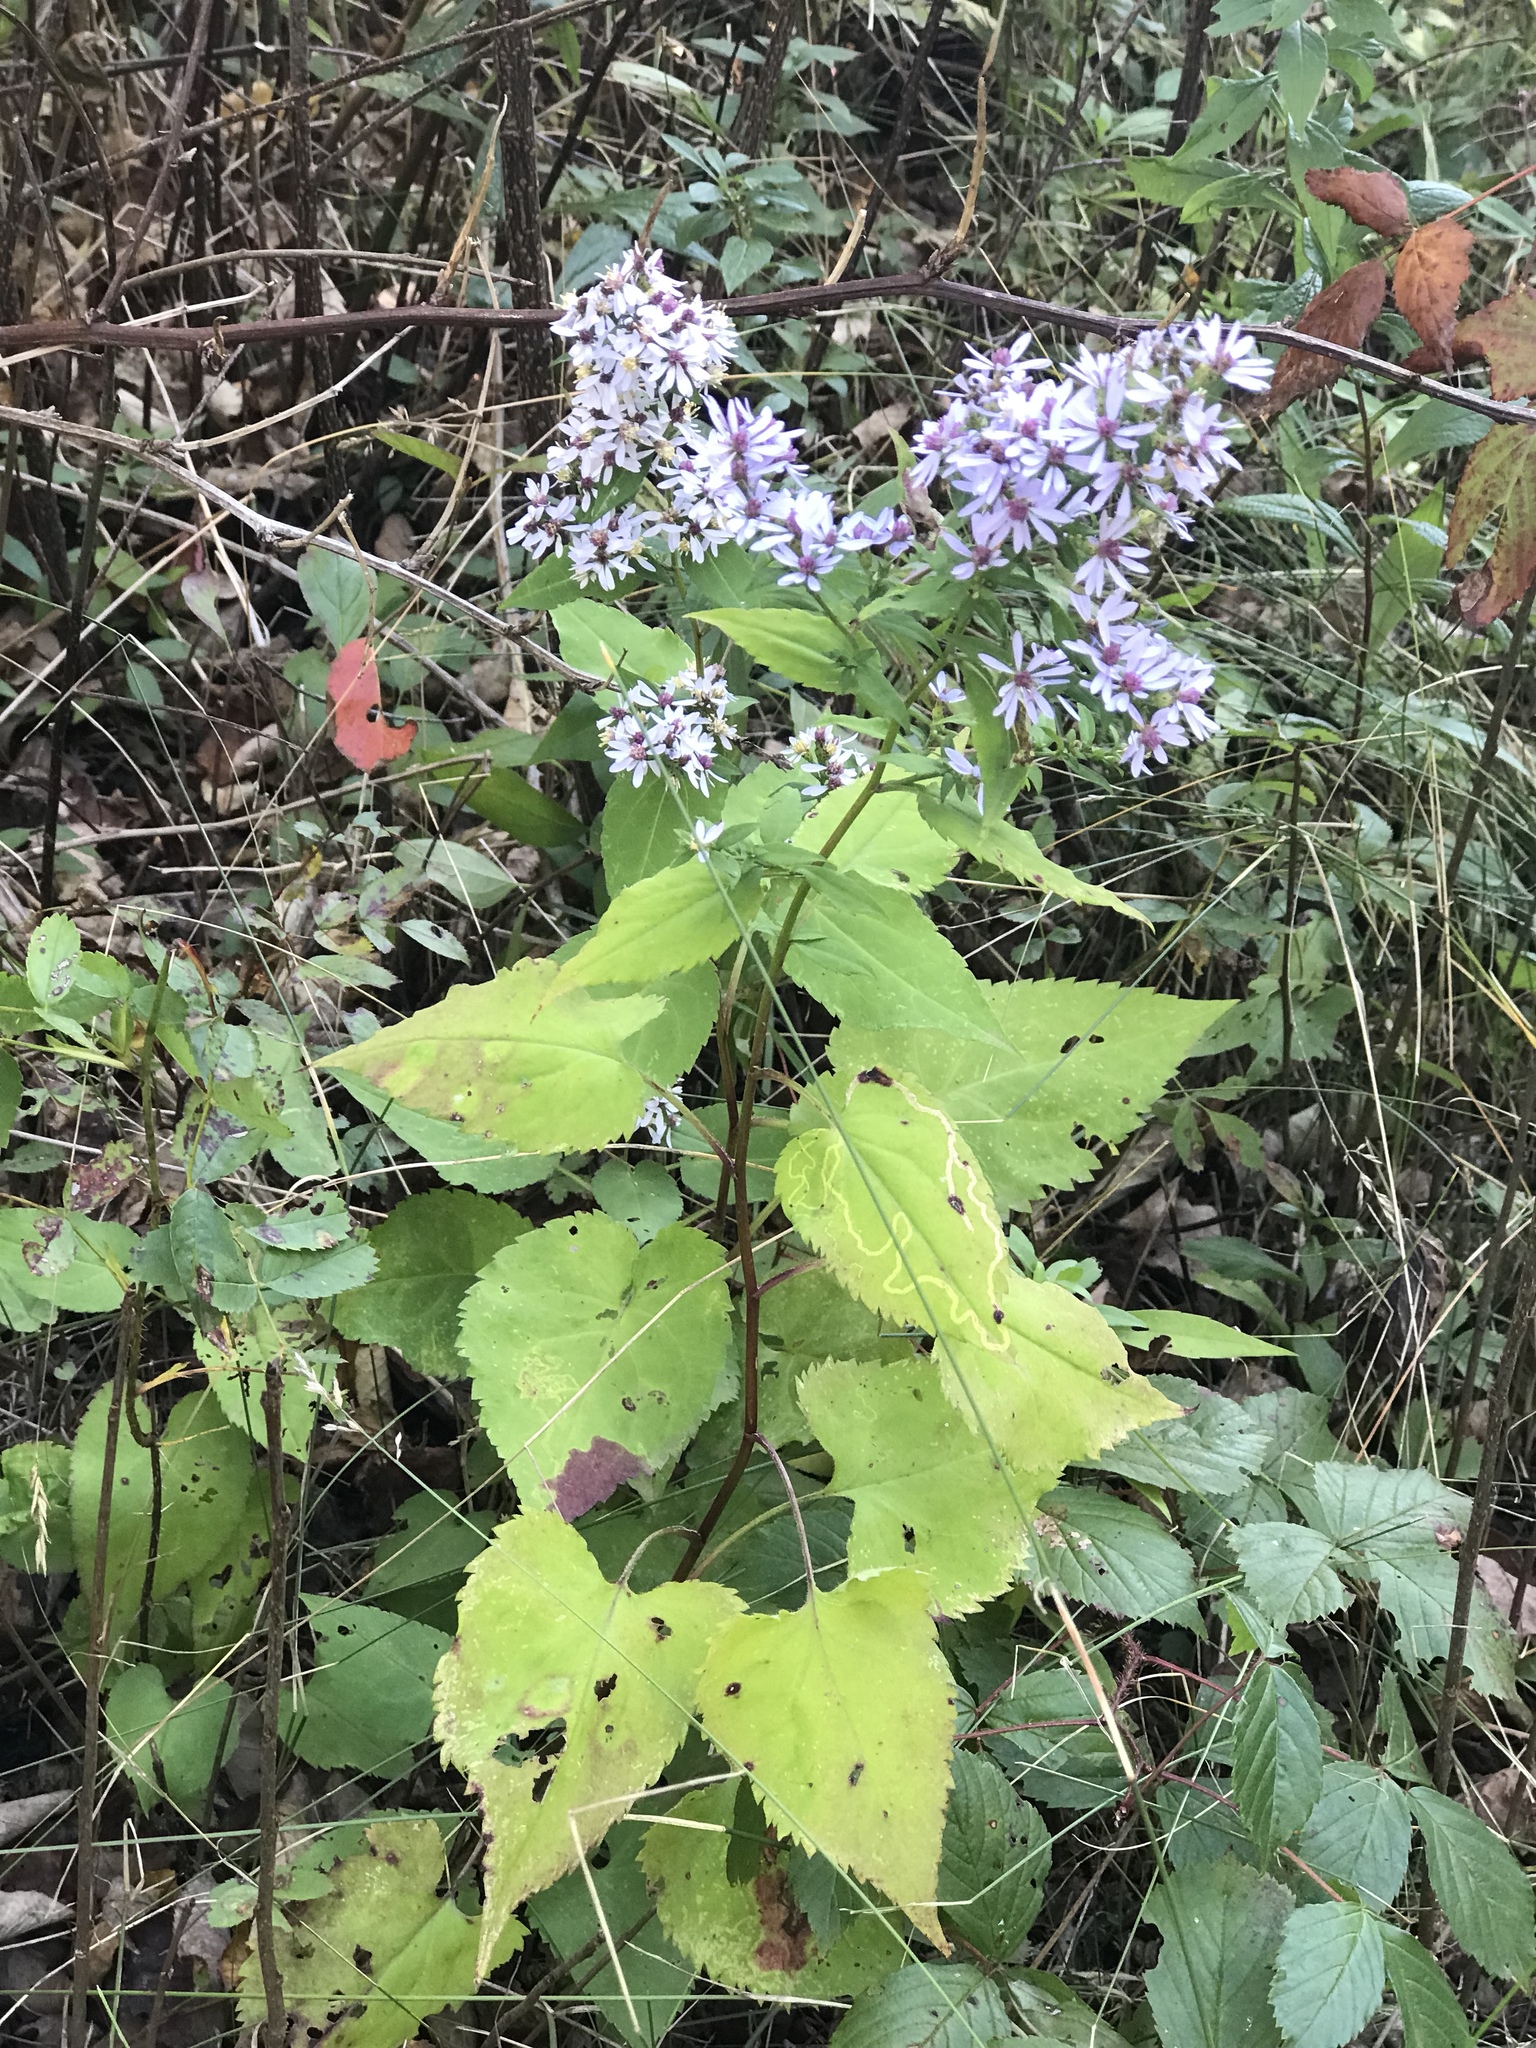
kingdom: Plantae
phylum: Tracheophyta
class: Magnoliopsida
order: Asterales
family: Asteraceae
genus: Symphyotrichum
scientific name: Symphyotrichum cordifolium
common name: Beeweed
